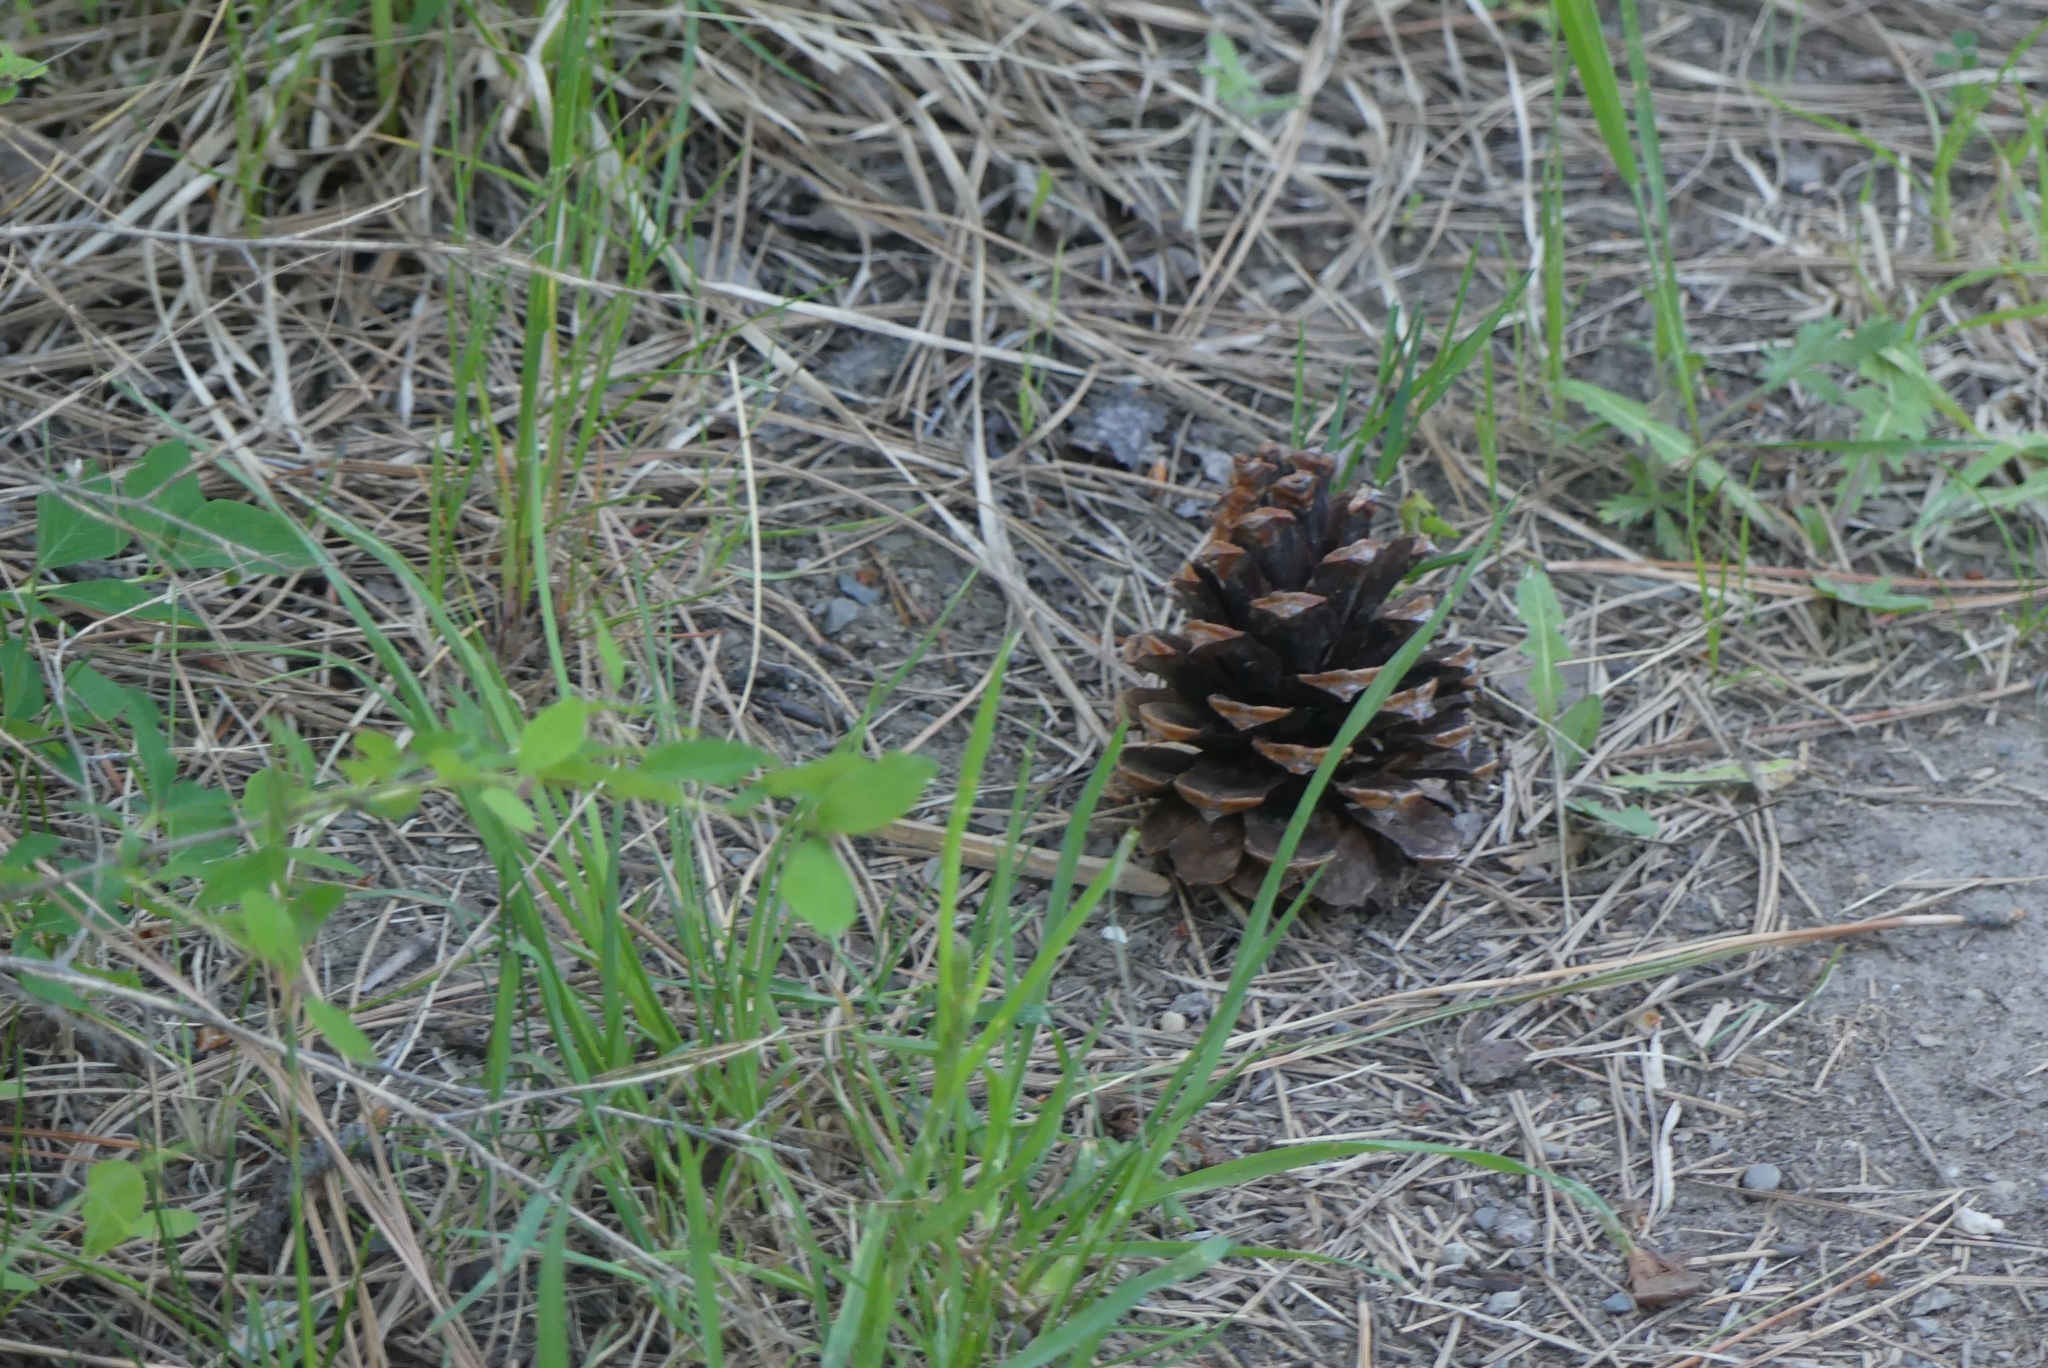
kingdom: Plantae
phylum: Tracheophyta
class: Pinopsida
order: Pinales
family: Pinaceae
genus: Pinus
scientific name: Pinus ponderosa
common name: Western yellow-pine
